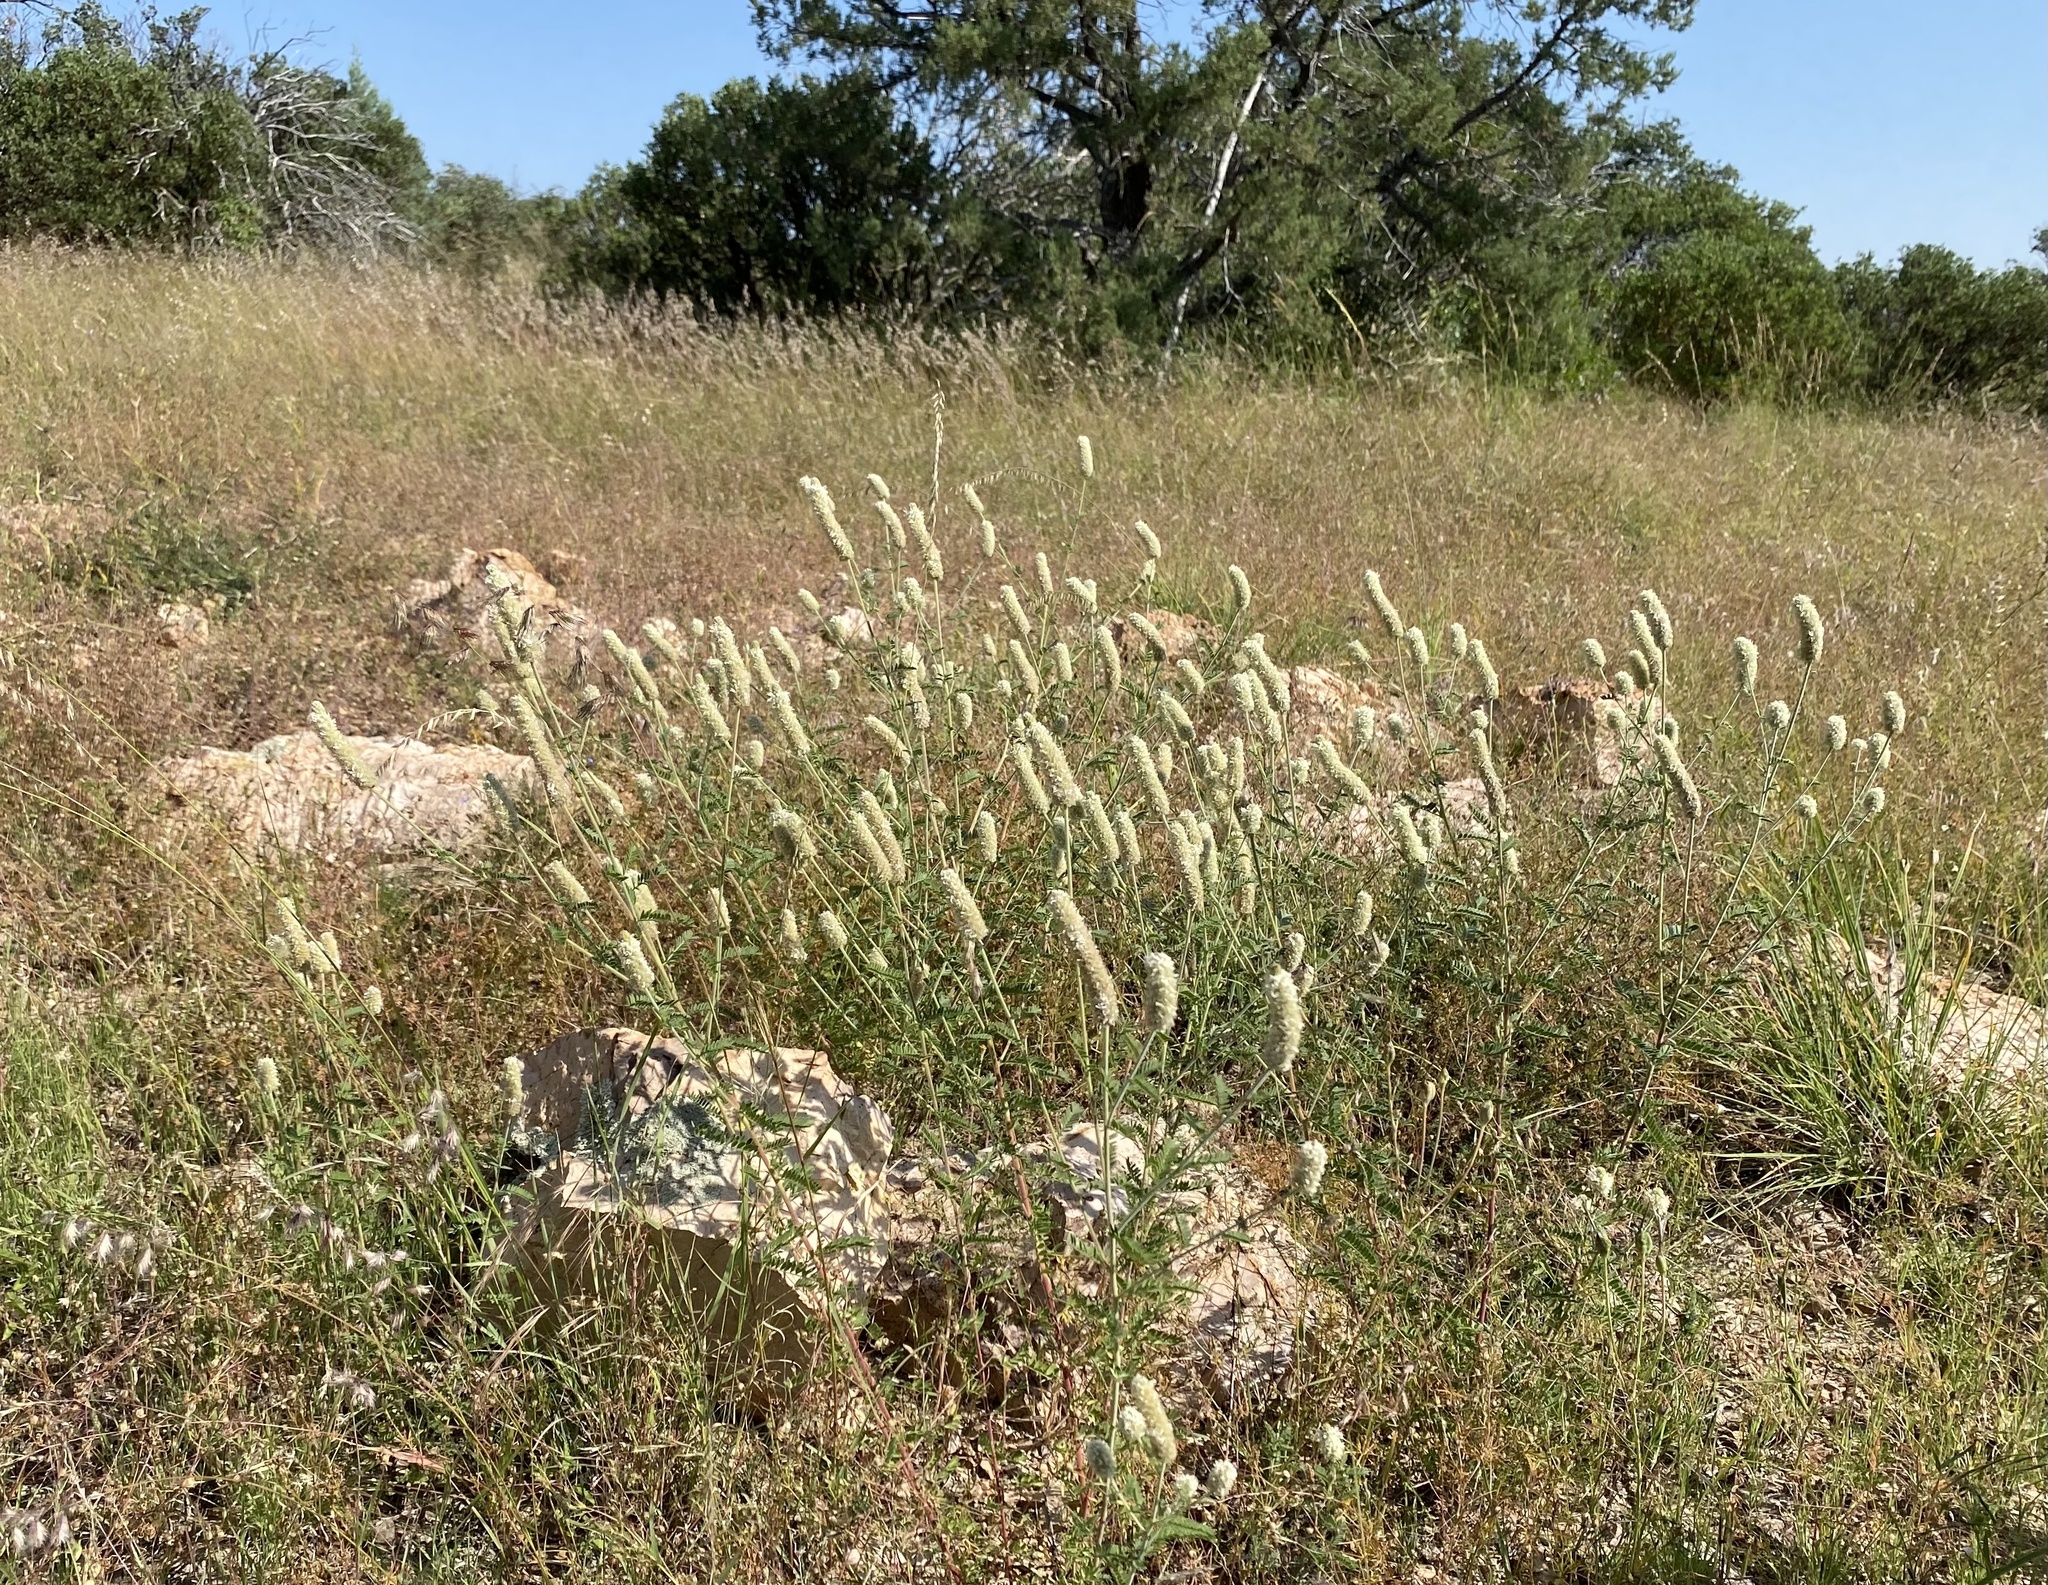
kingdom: Plantae
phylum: Tracheophyta
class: Magnoliopsida
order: Fabales
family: Fabaceae
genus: Dalea
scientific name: Dalea albiflora
